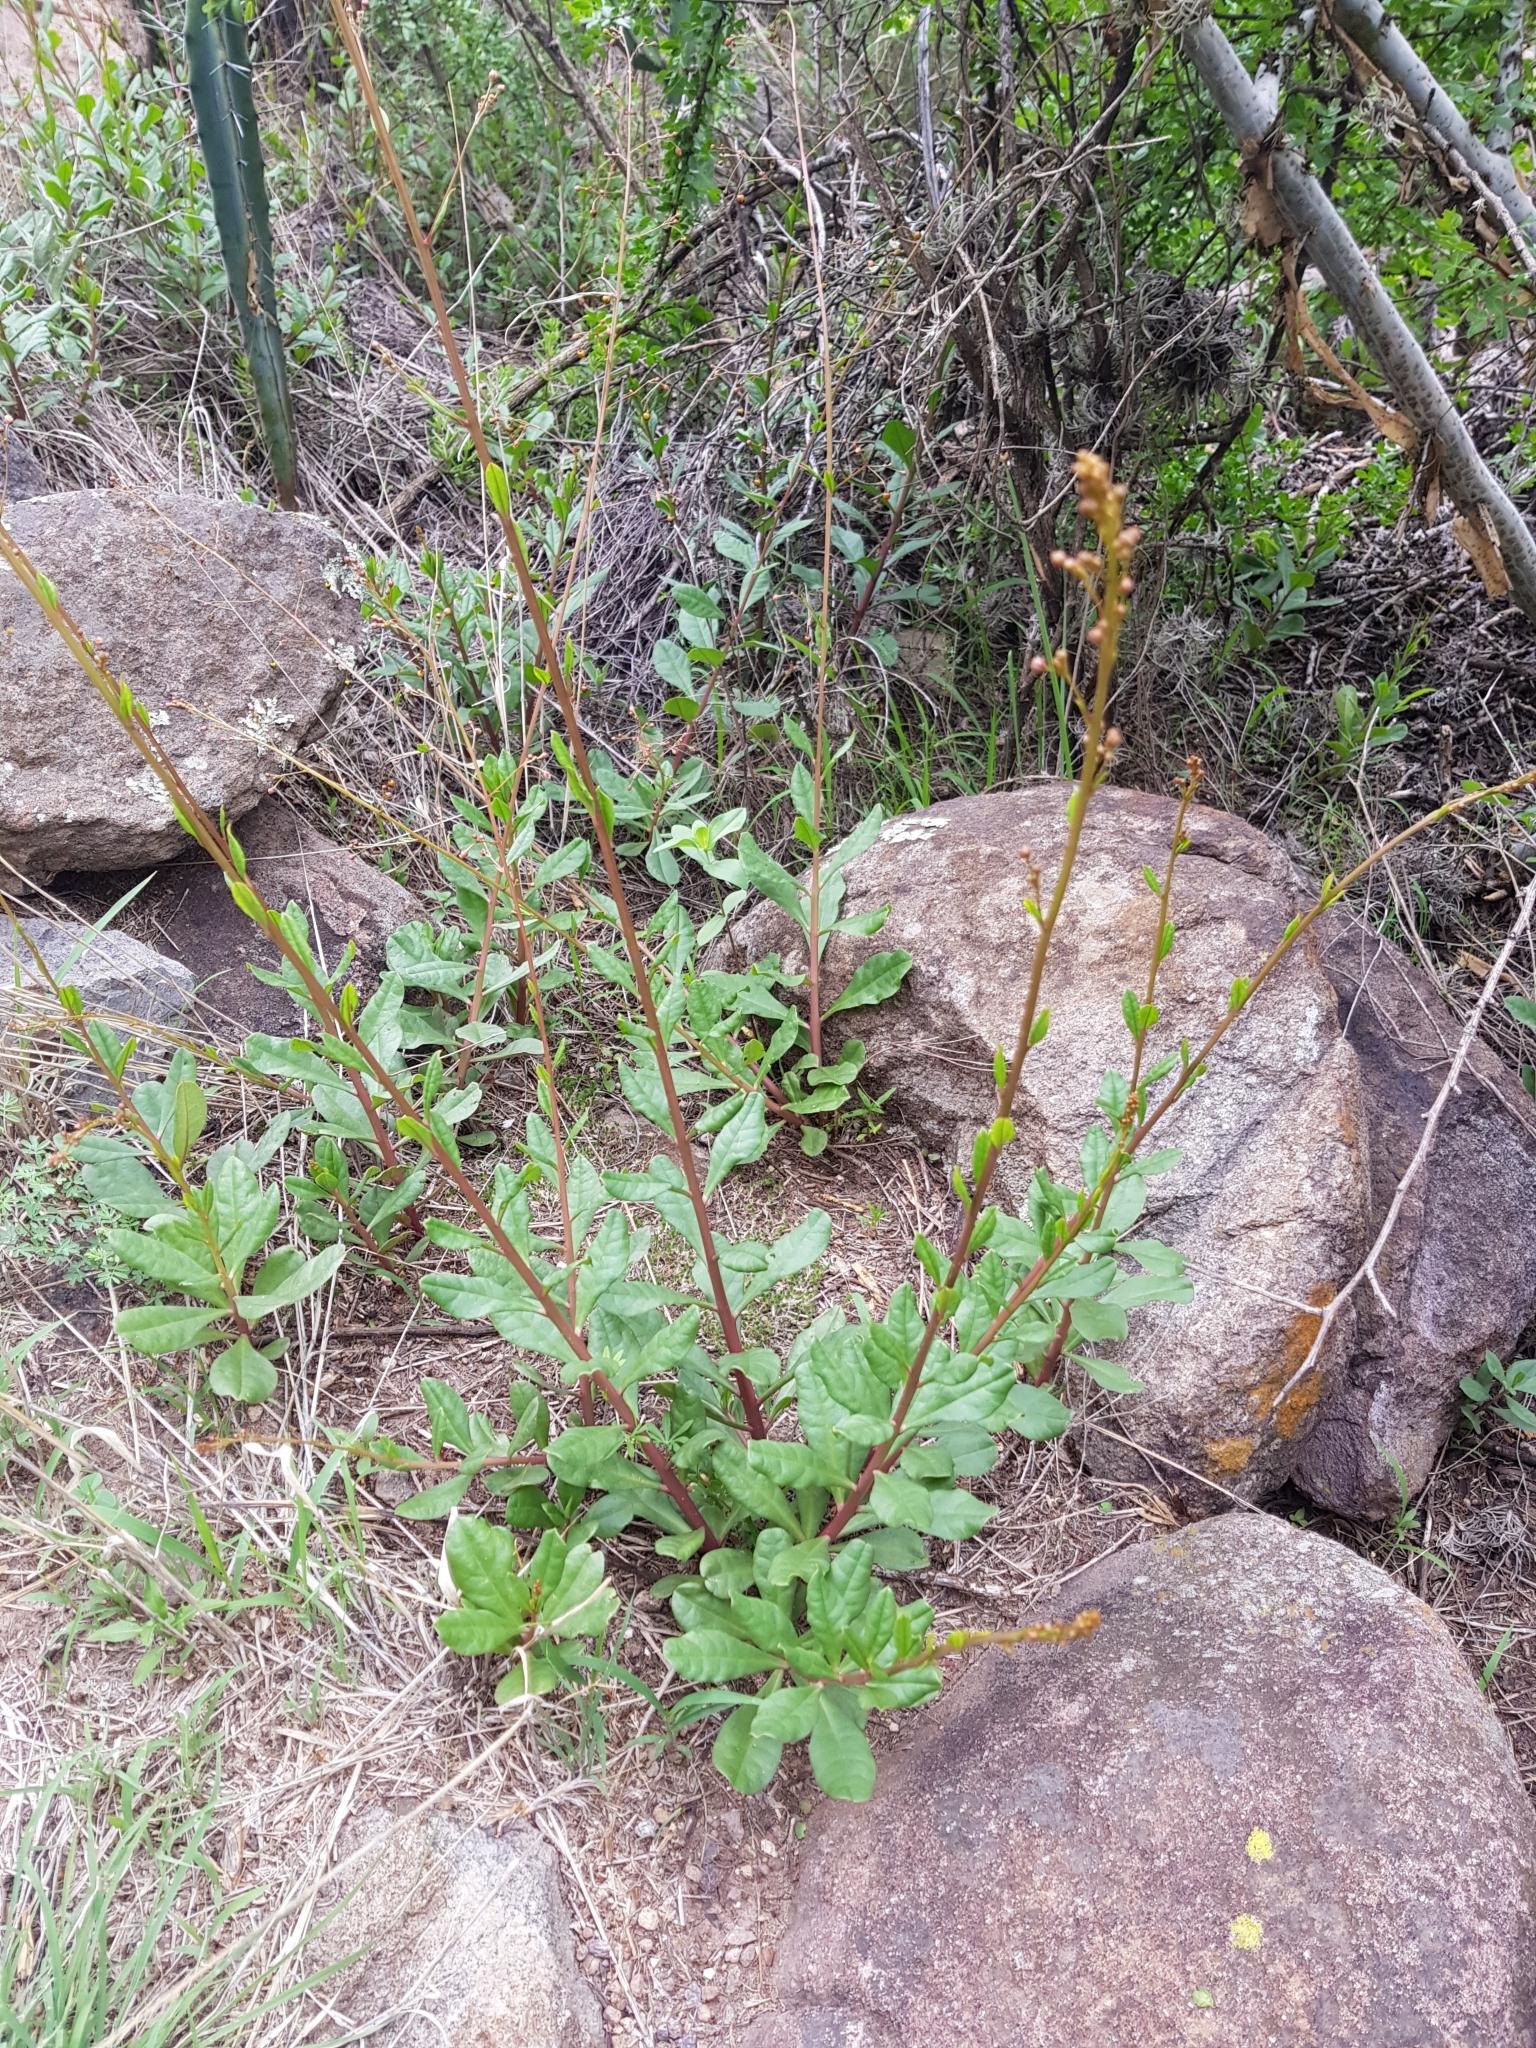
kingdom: Plantae
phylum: Tracheophyta
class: Magnoliopsida
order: Caryophyllales
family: Talinaceae
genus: Talinum
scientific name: Talinum paniculatum
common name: Jewels of opar
